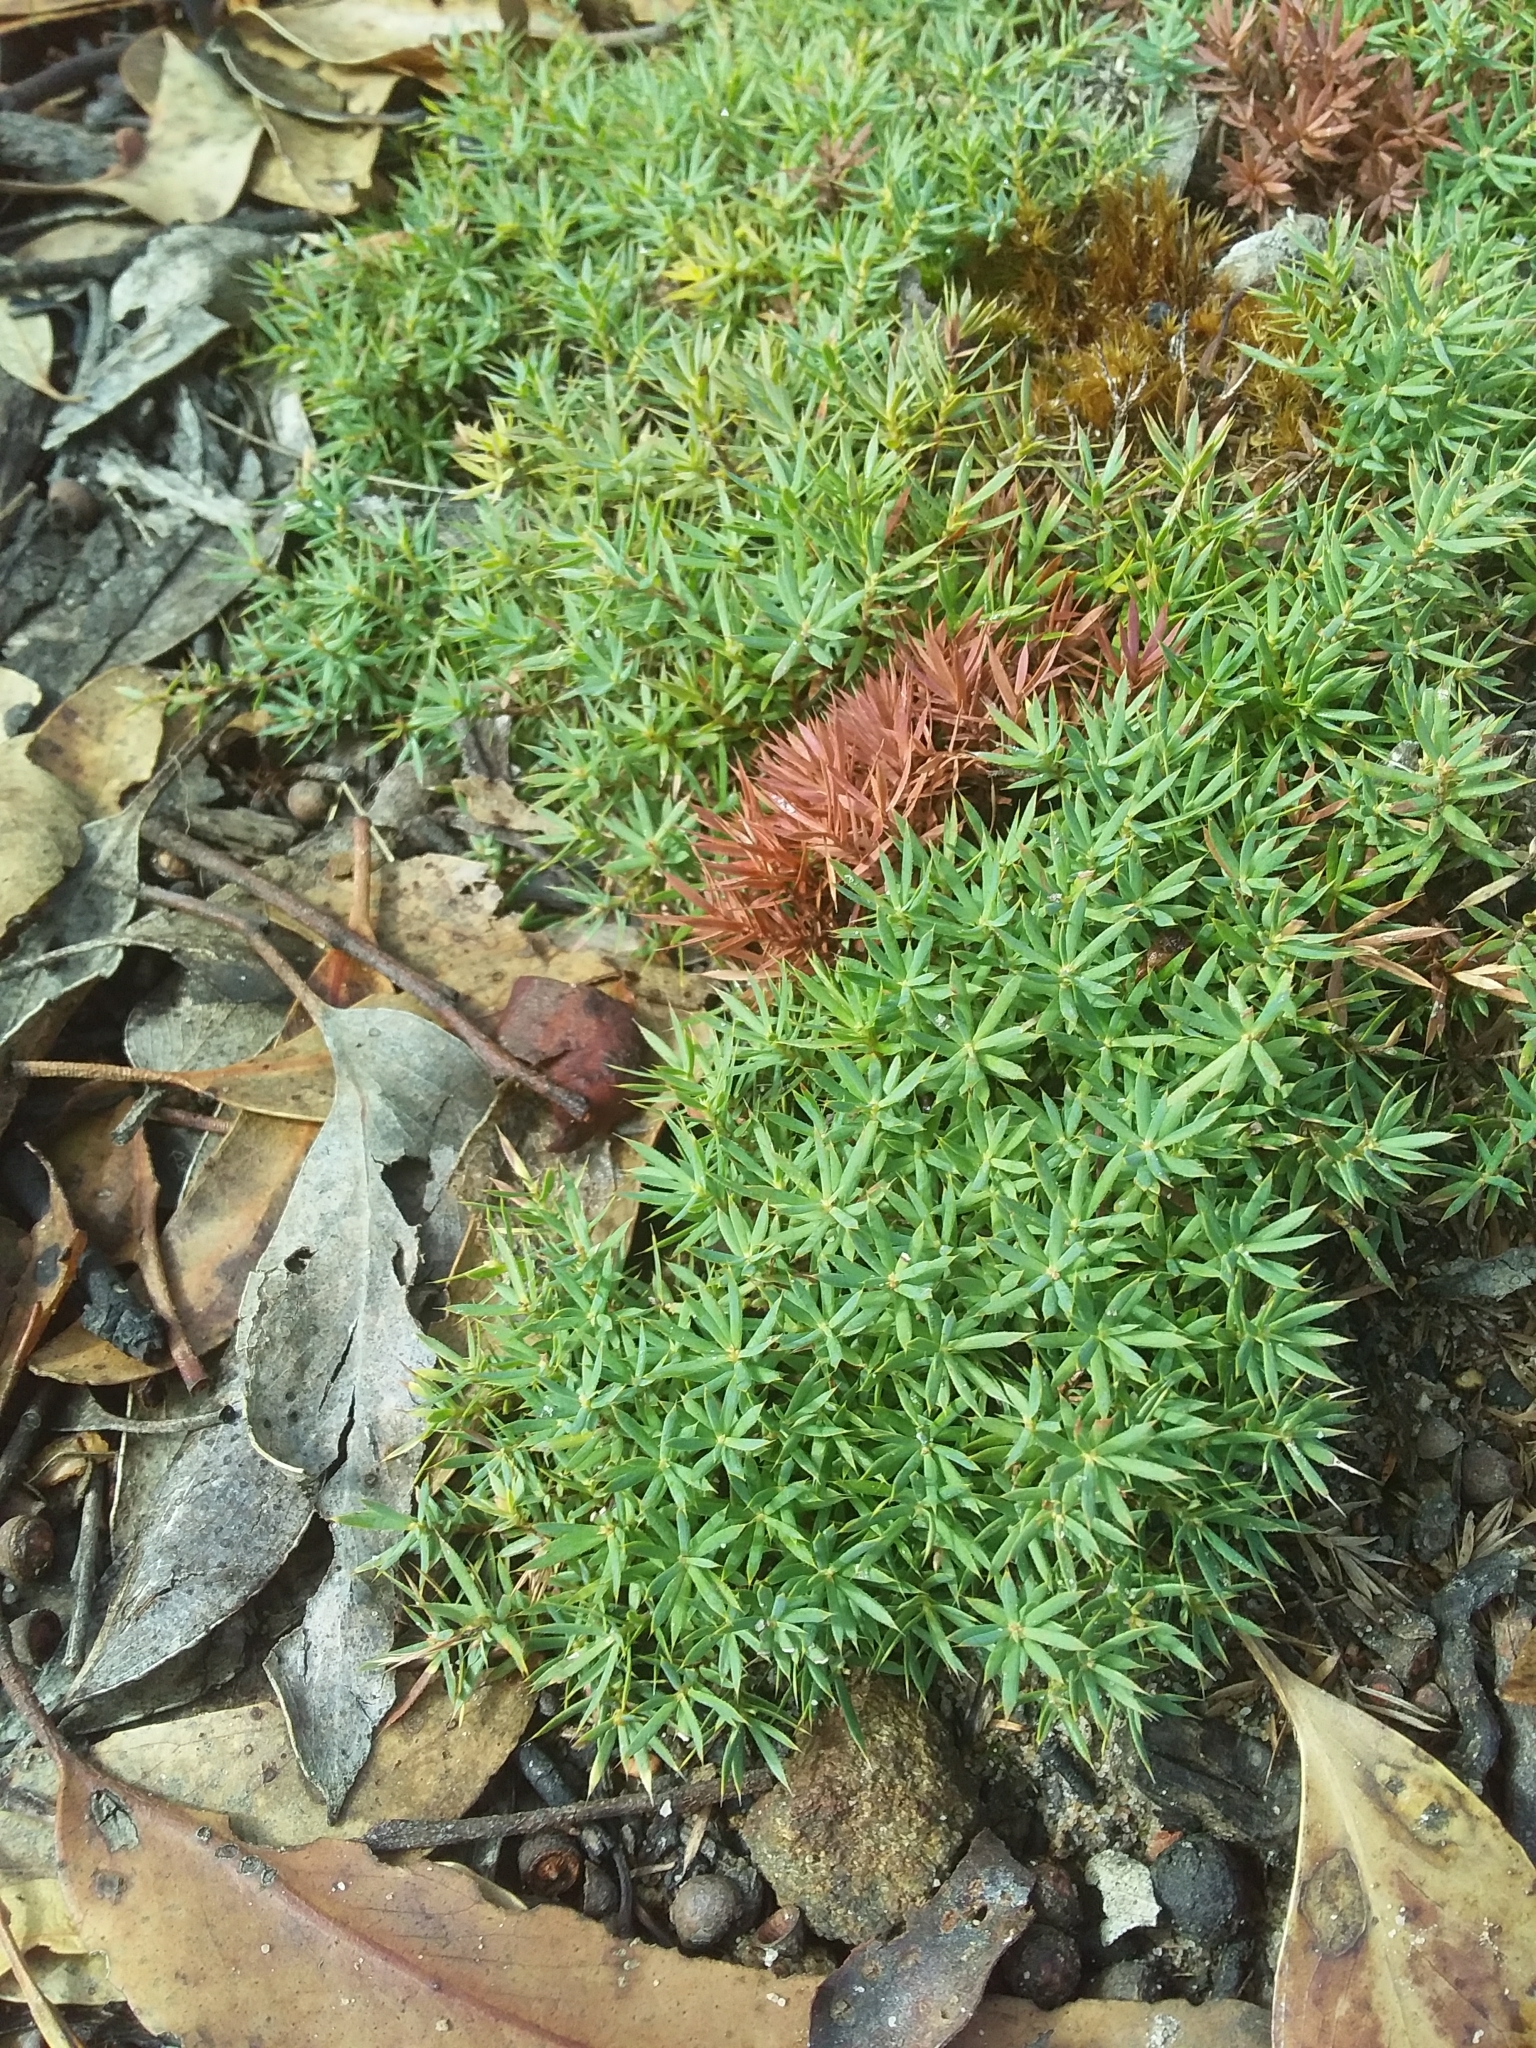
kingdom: Plantae
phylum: Tracheophyta
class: Magnoliopsida
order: Ericales
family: Ericaceae
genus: Styphelia
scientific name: Styphelia humifusa
